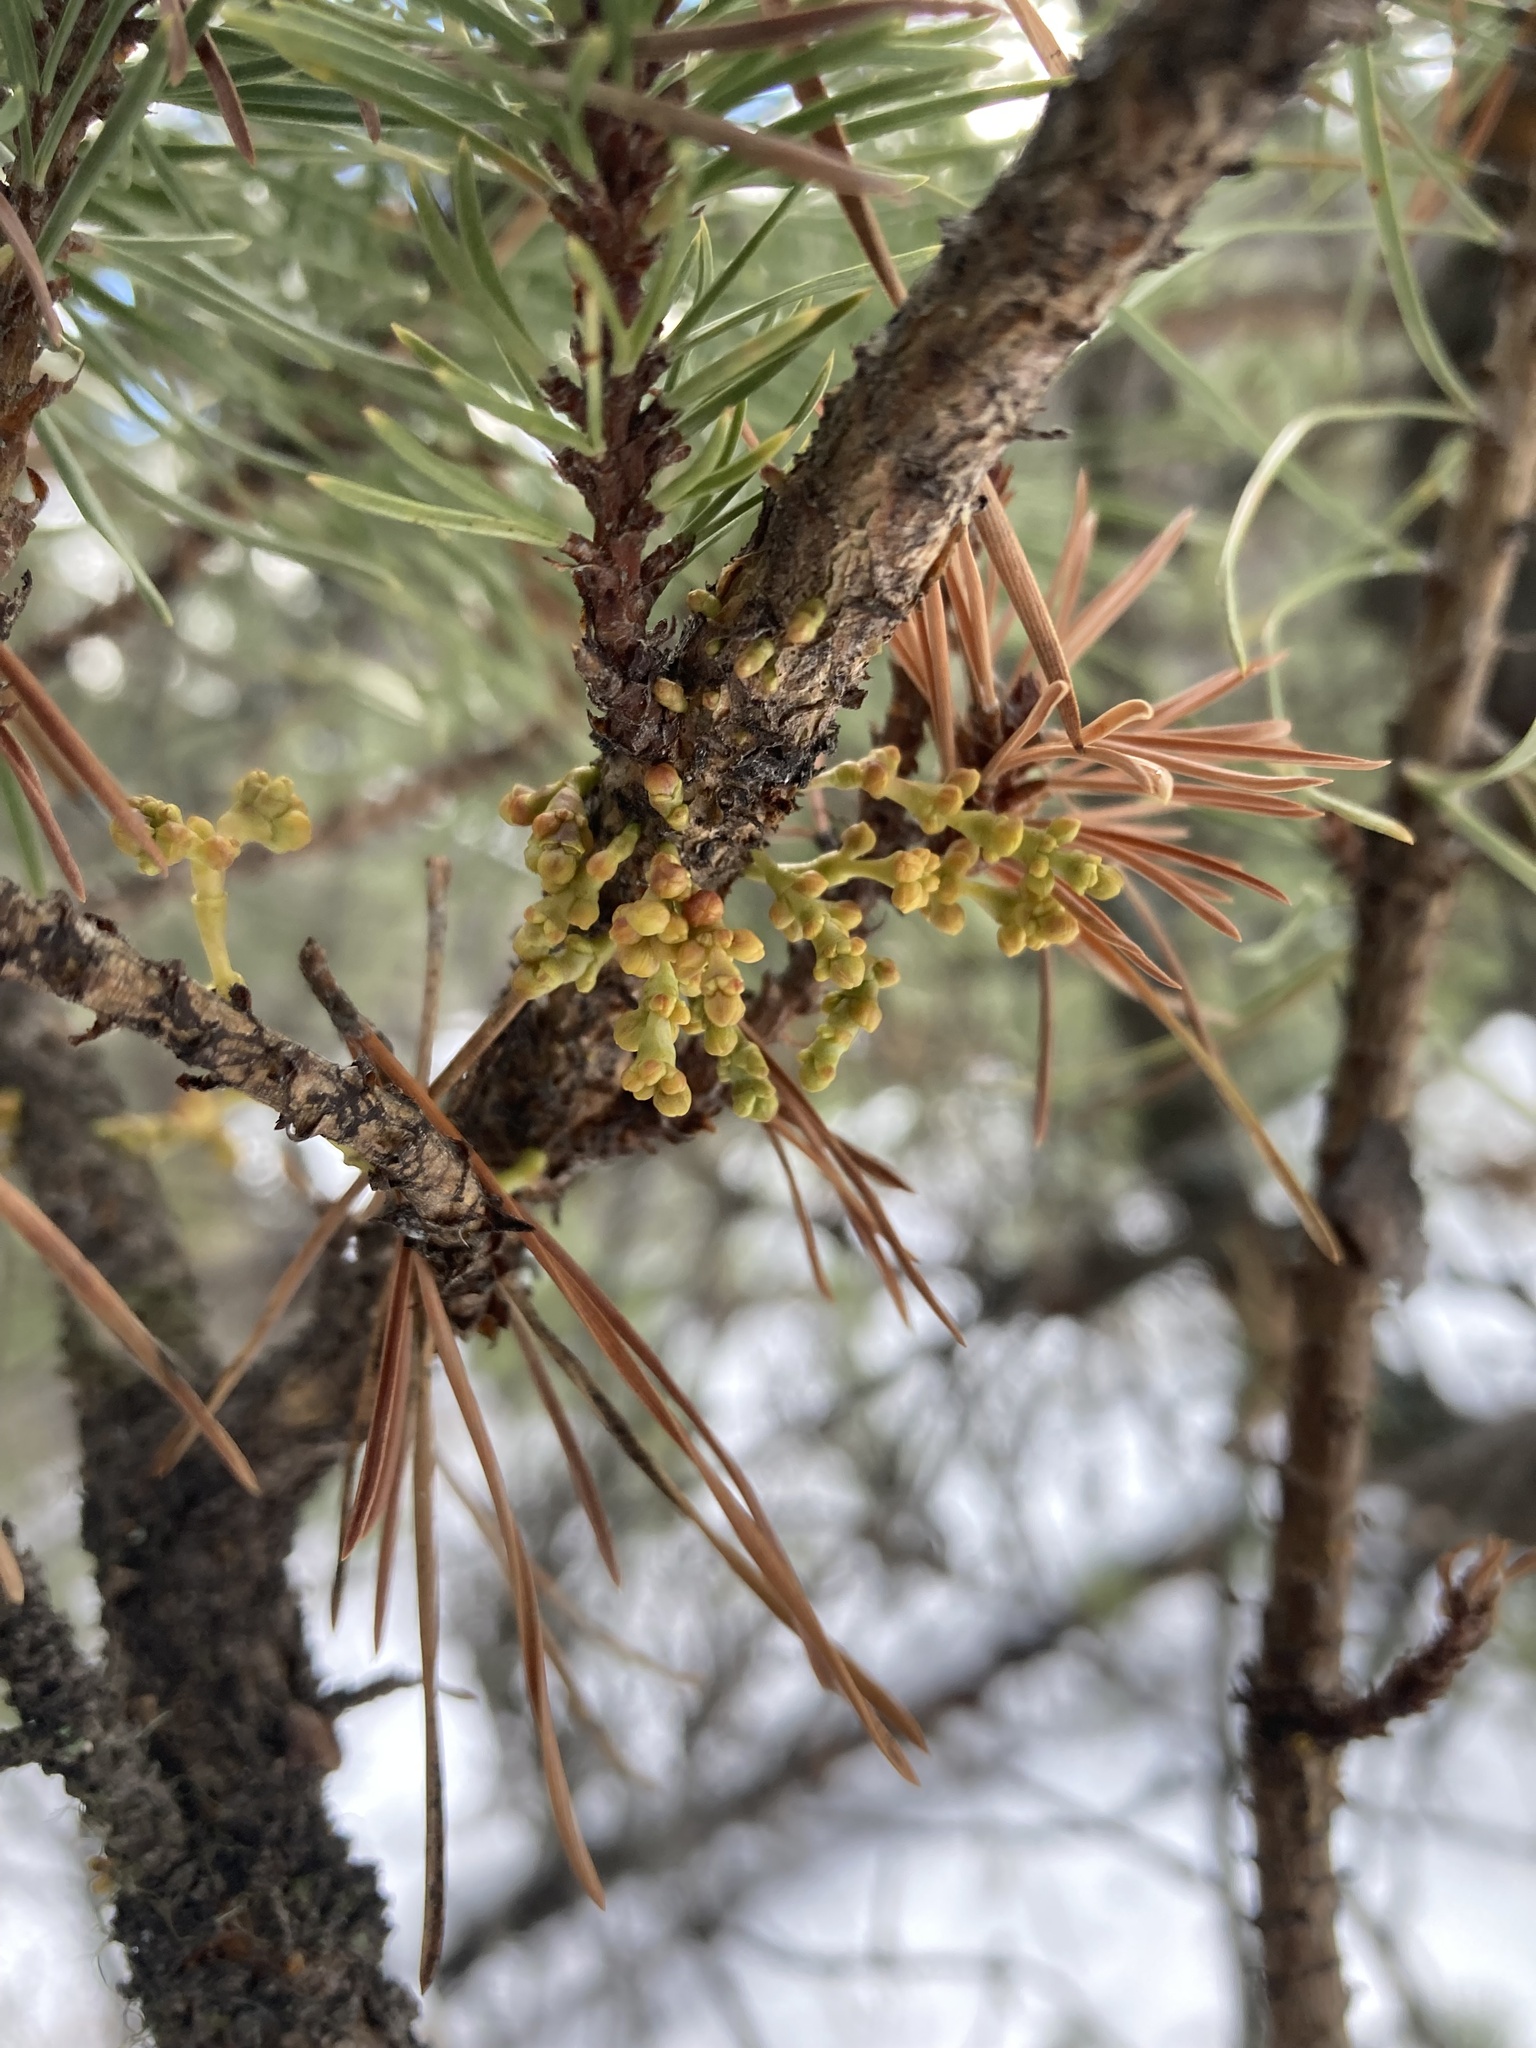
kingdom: Plantae
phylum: Tracheophyta
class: Magnoliopsida
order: Santalales
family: Viscaceae
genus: Arceuthobium
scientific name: Arceuthobium americanum
